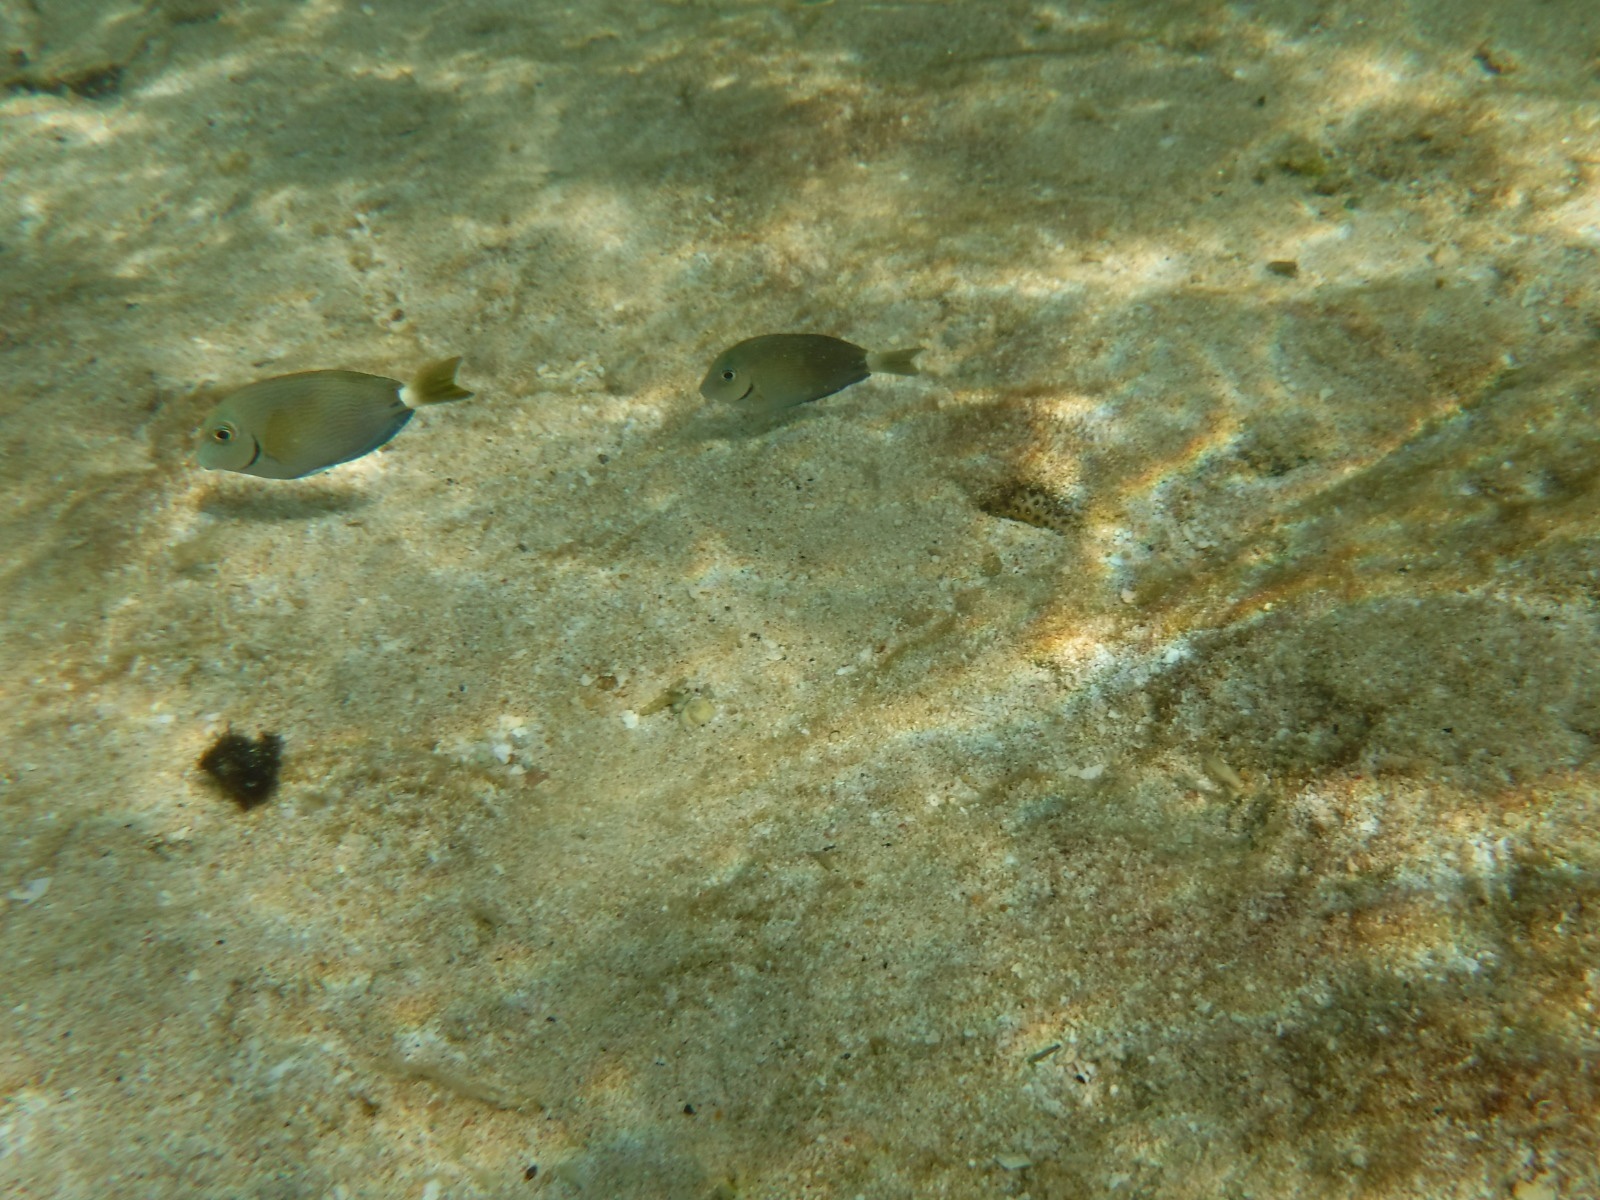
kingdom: Animalia
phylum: Chordata
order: Perciformes
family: Acanthuridae
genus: Acanthurus
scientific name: Acanthurus bahianus
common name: Ocean surgeon
